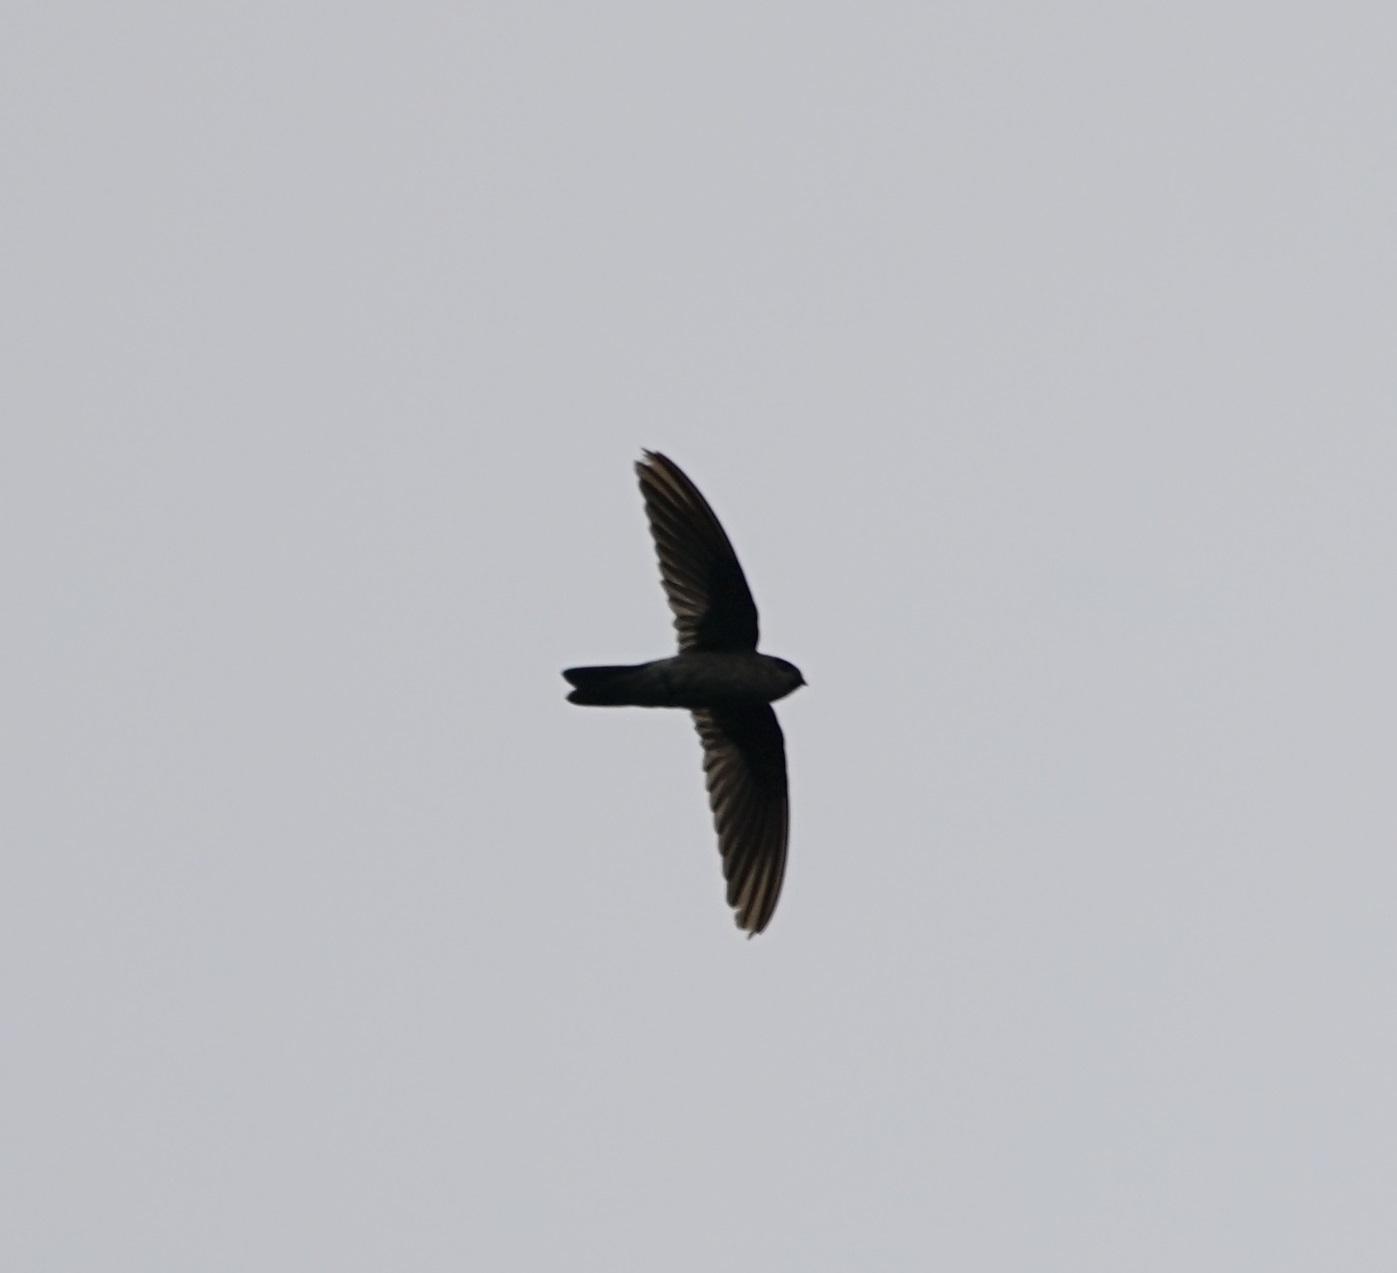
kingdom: Animalia
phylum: Chordata
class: Aves
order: Apodiformes
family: Apodidae
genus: Aerodramus
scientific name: Aerodramus
